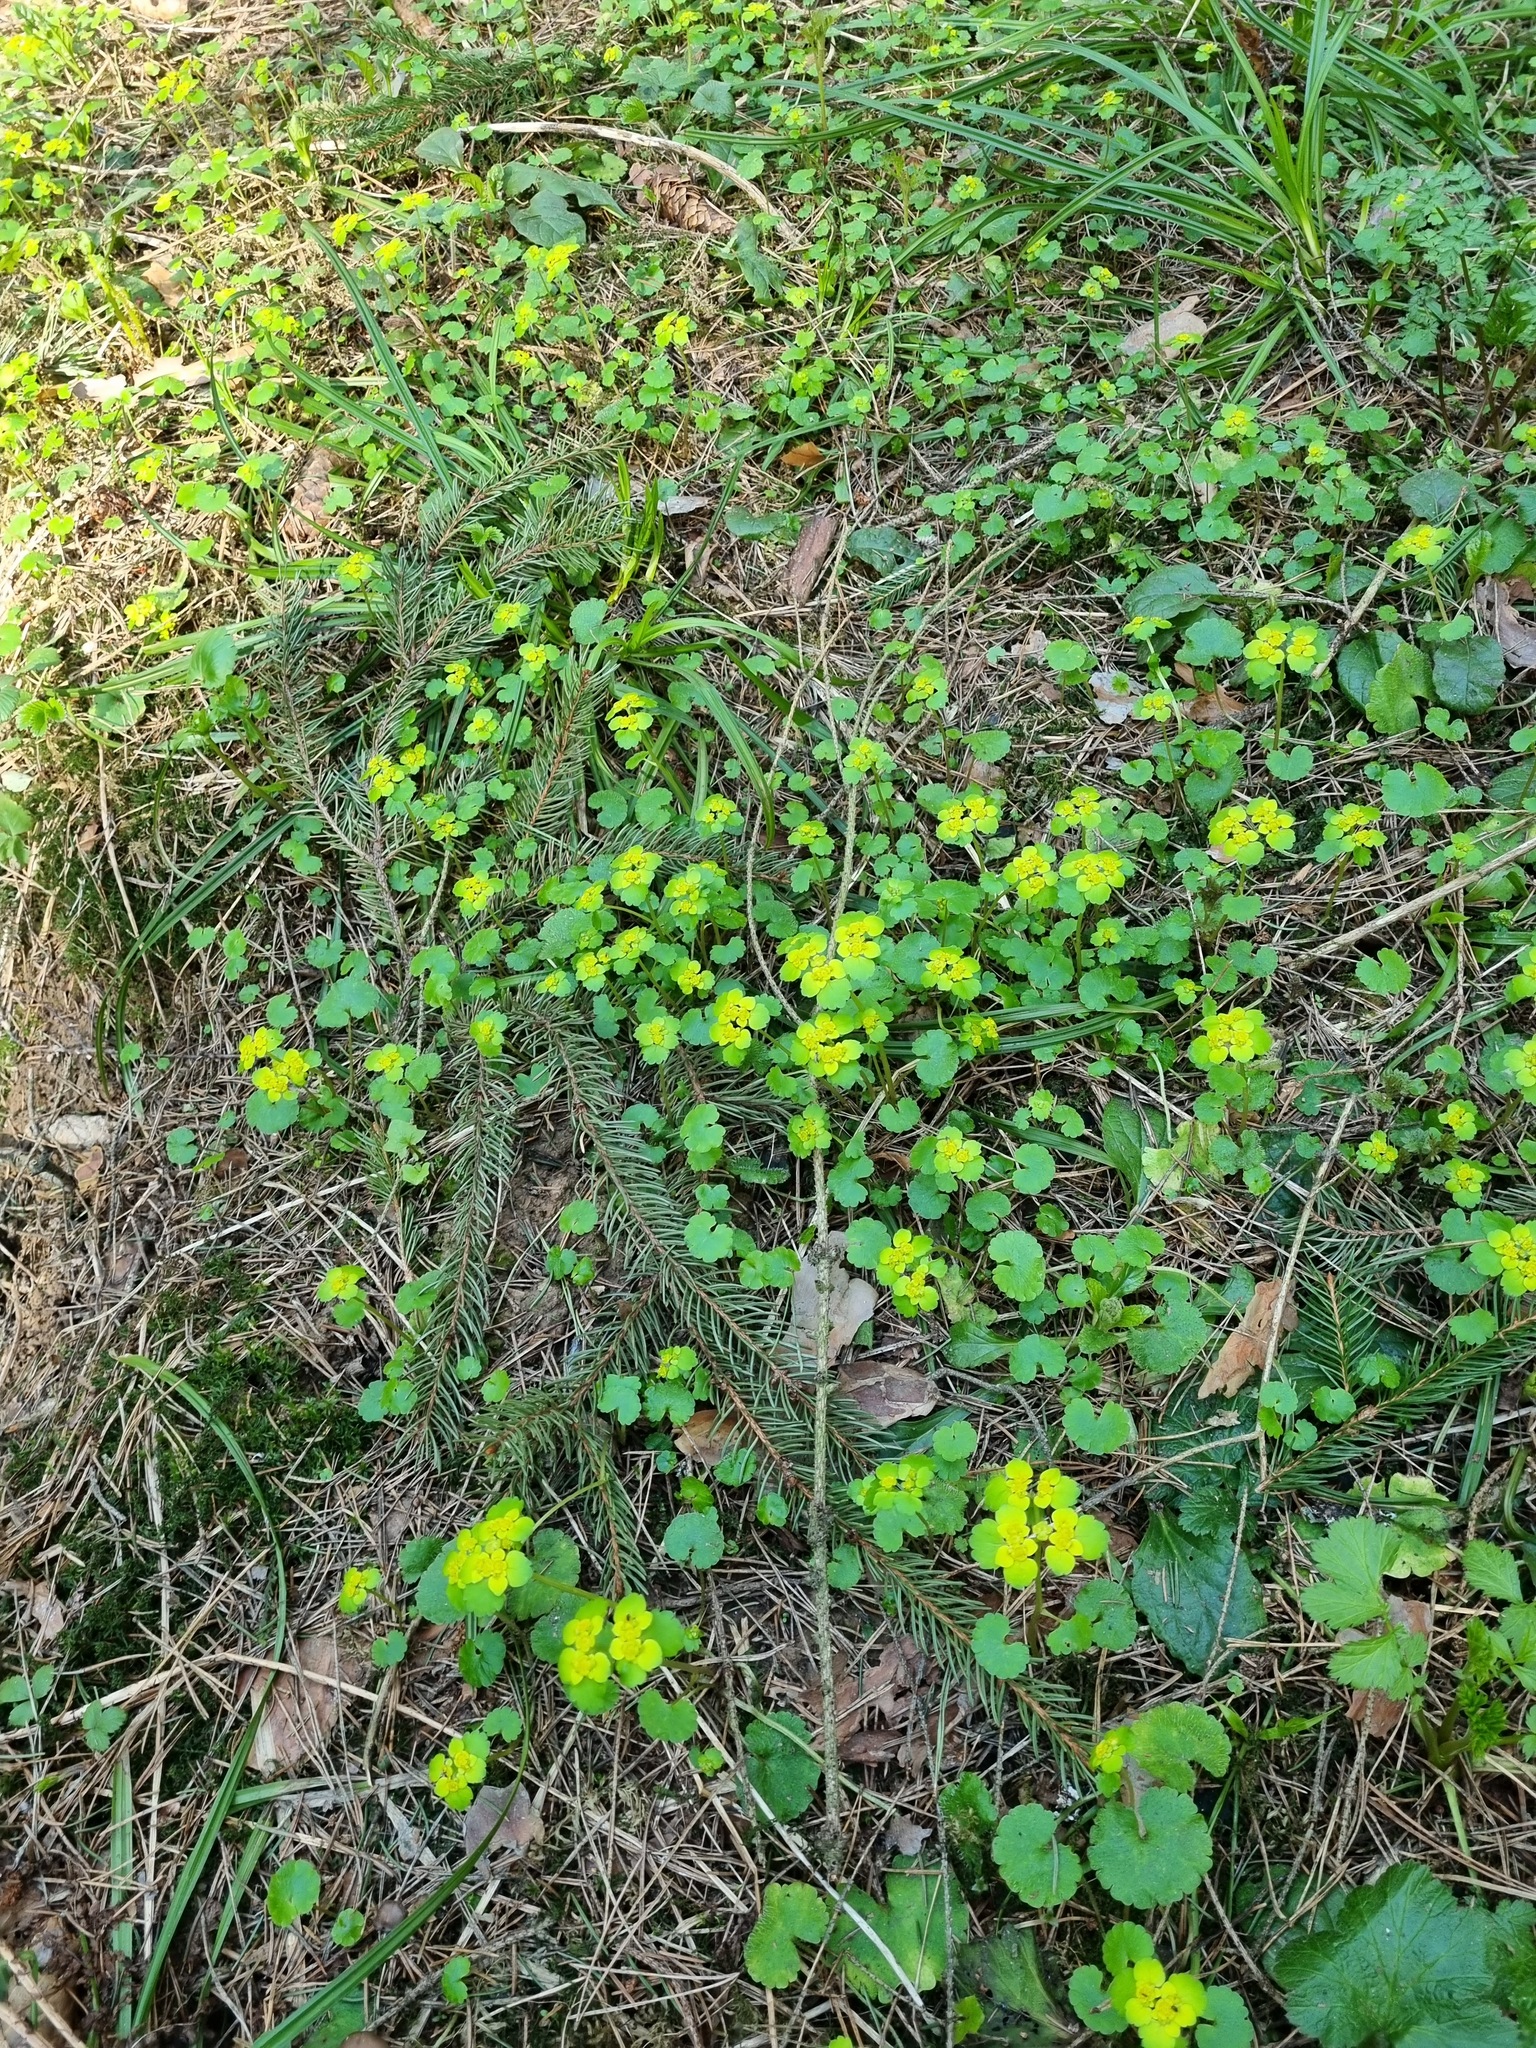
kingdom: Plantae
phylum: Tracheophyta
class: Magnoliopsida
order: Saxifragales
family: Saxifragaceae
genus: Chrysosplenium
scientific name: Chrysosplenium alternifolium
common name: Alternate-leaved golden-saxifrage
